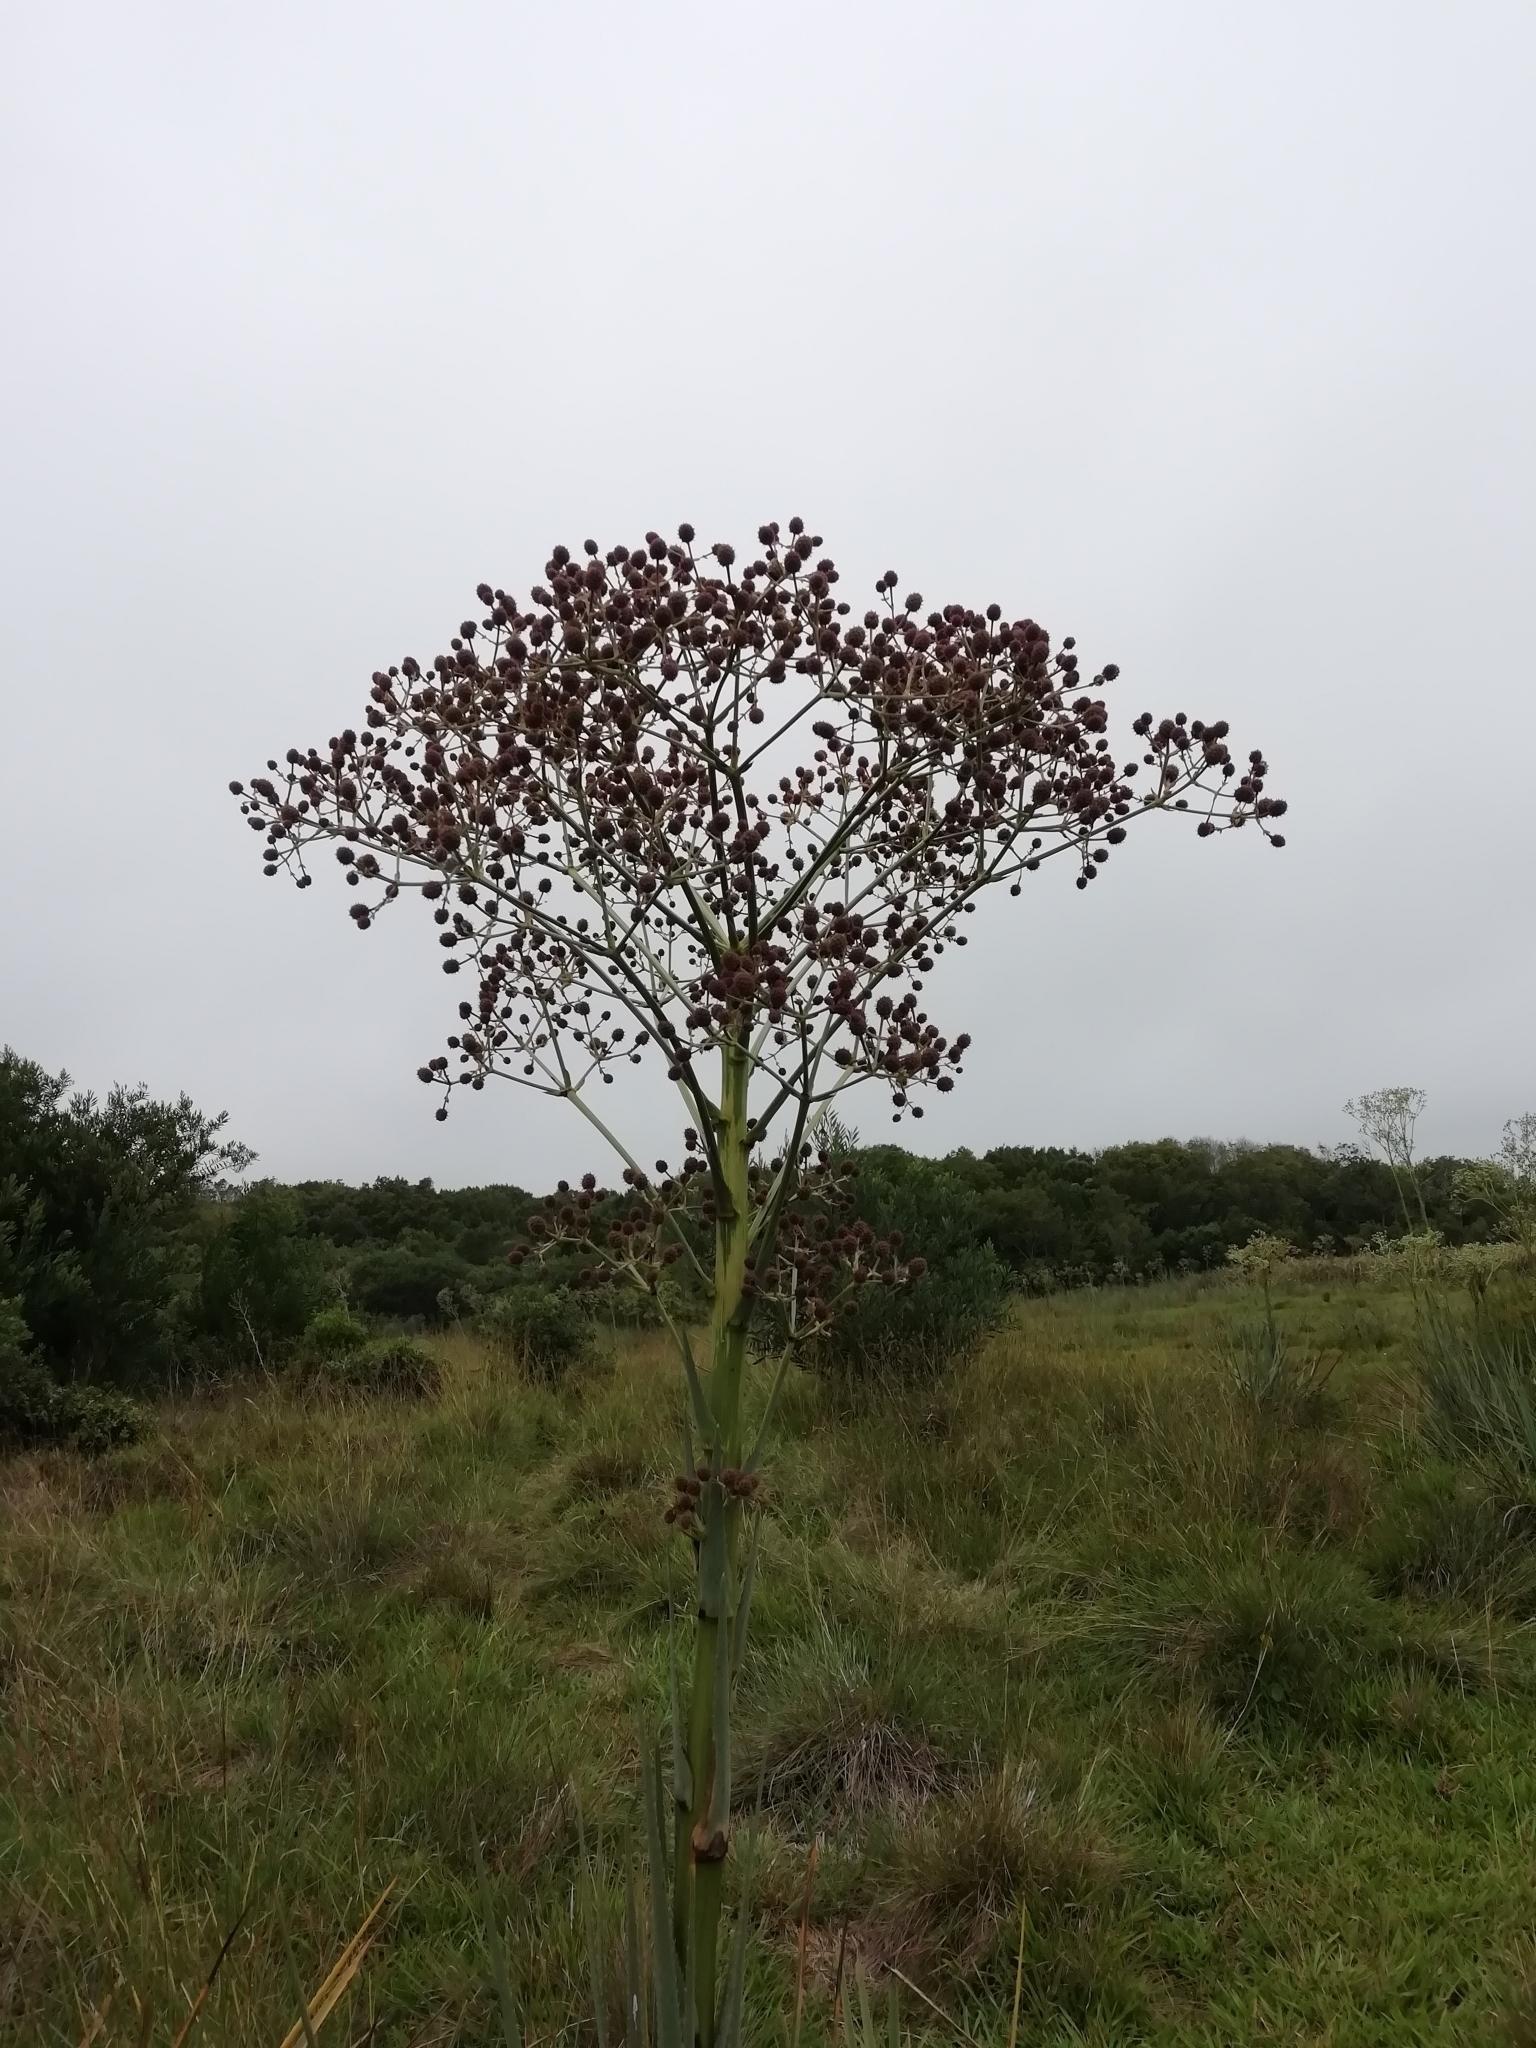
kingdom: Plantae
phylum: Tracheophyta
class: Magnoliopsida
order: Apiales
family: Apiaceae
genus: Eryngium
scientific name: Eryngium pandanifolium
